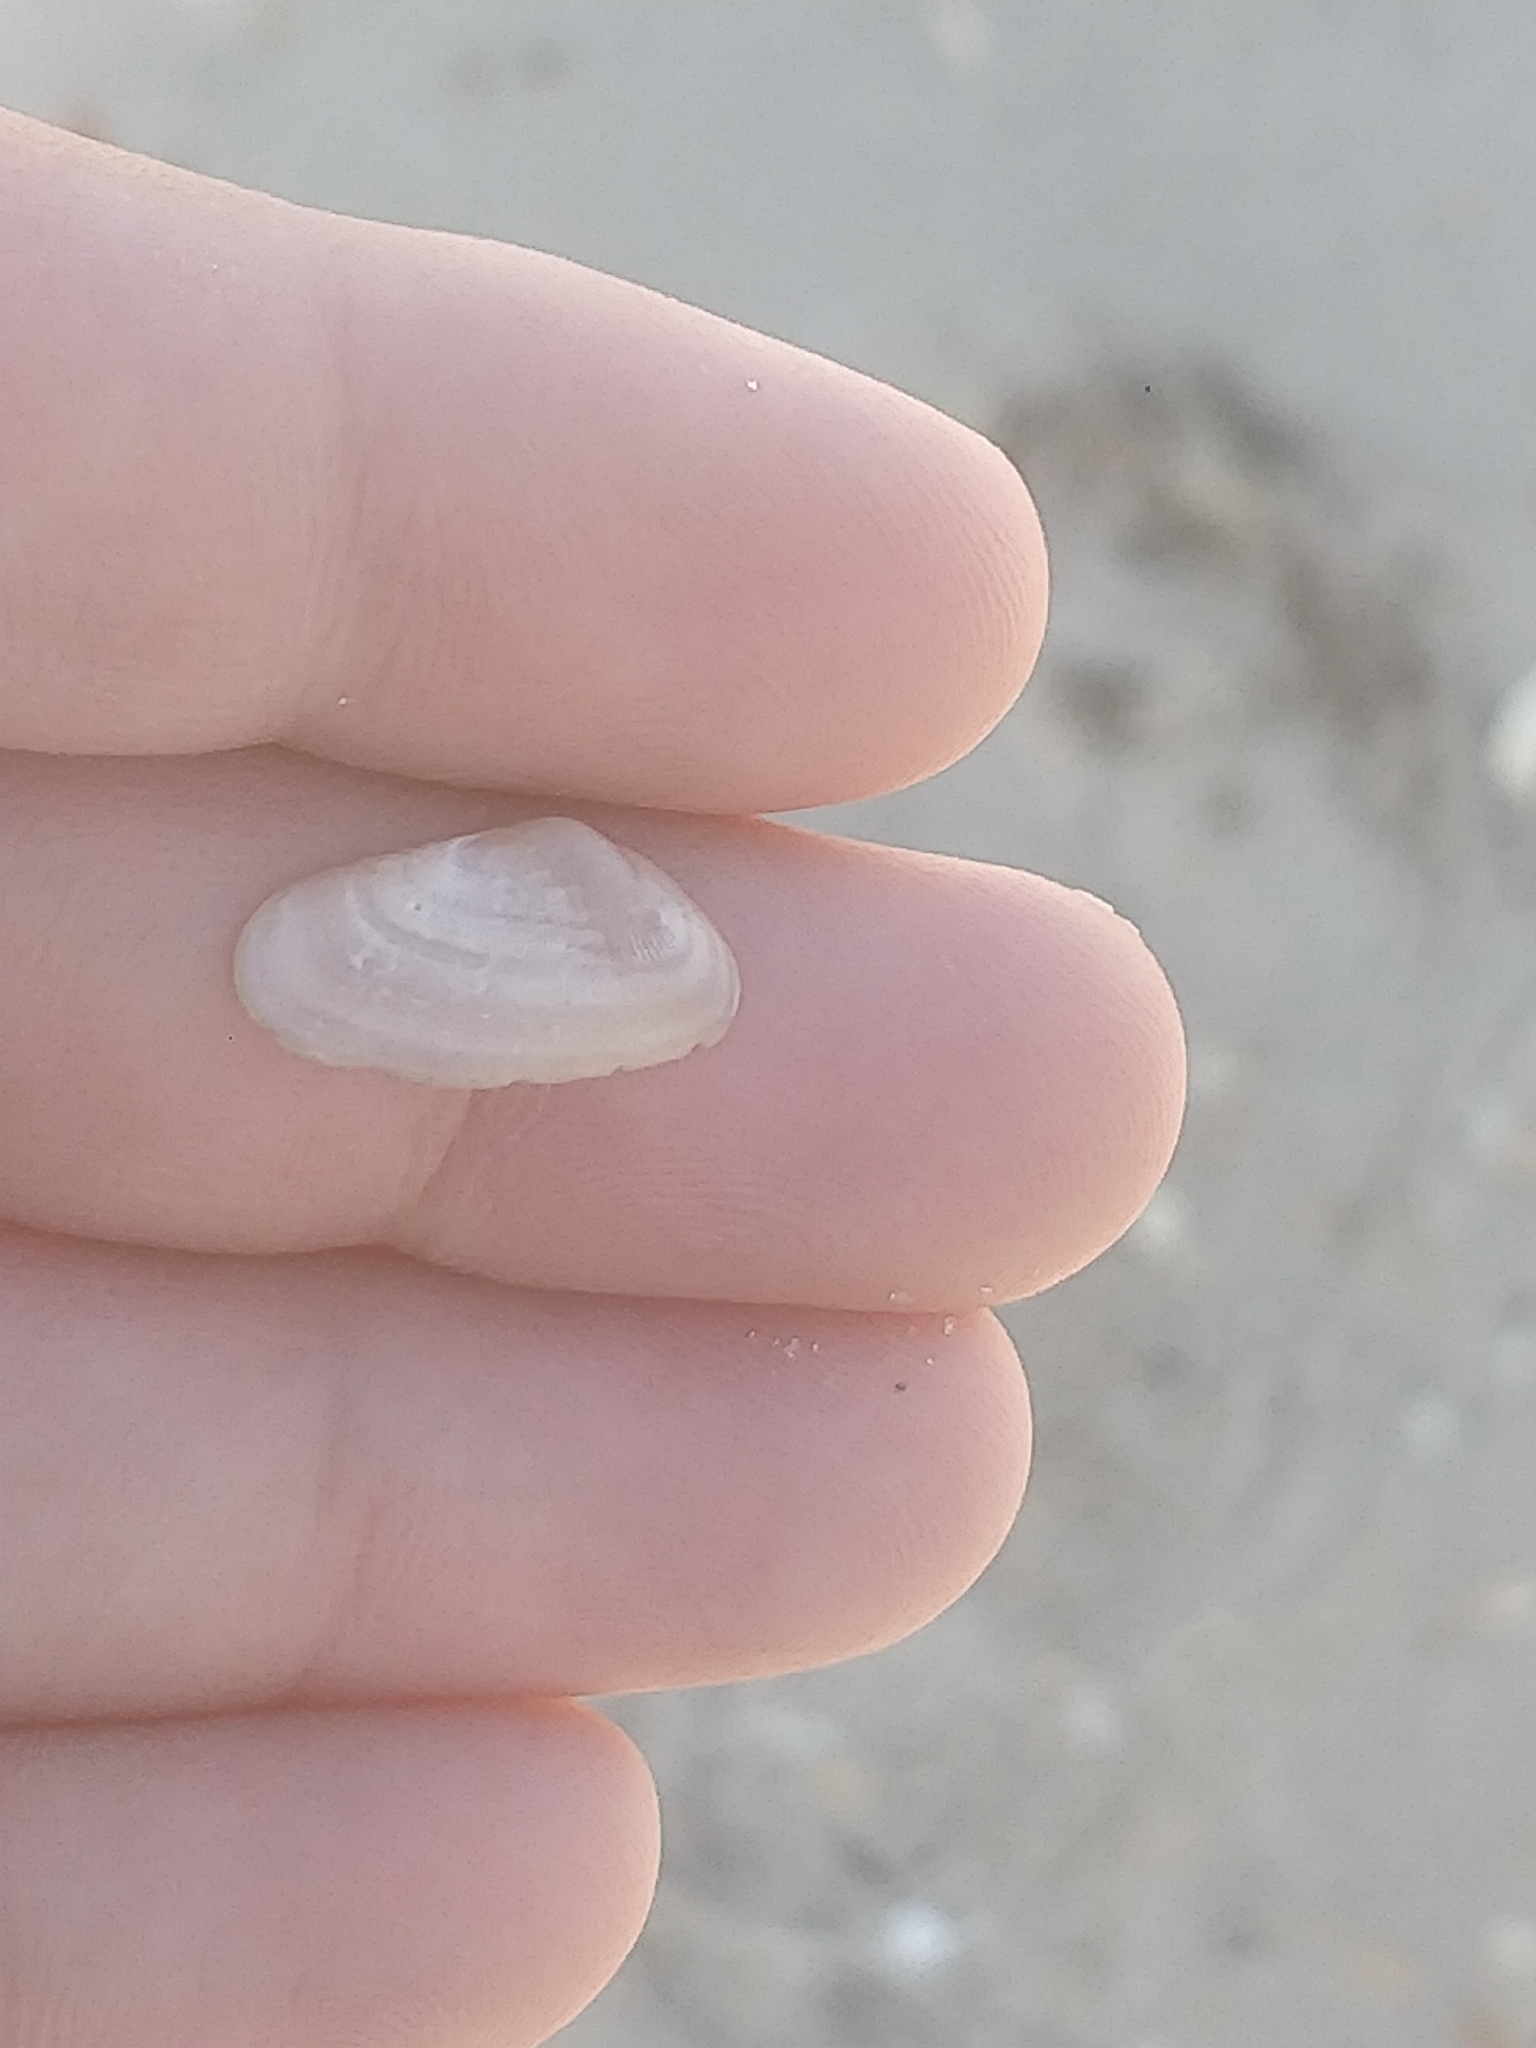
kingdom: Animalia
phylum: Mollusca
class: Bivalvia
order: Cardiida
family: Donacidae
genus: Donax
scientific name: Donax variabilis
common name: Butterfly shell
